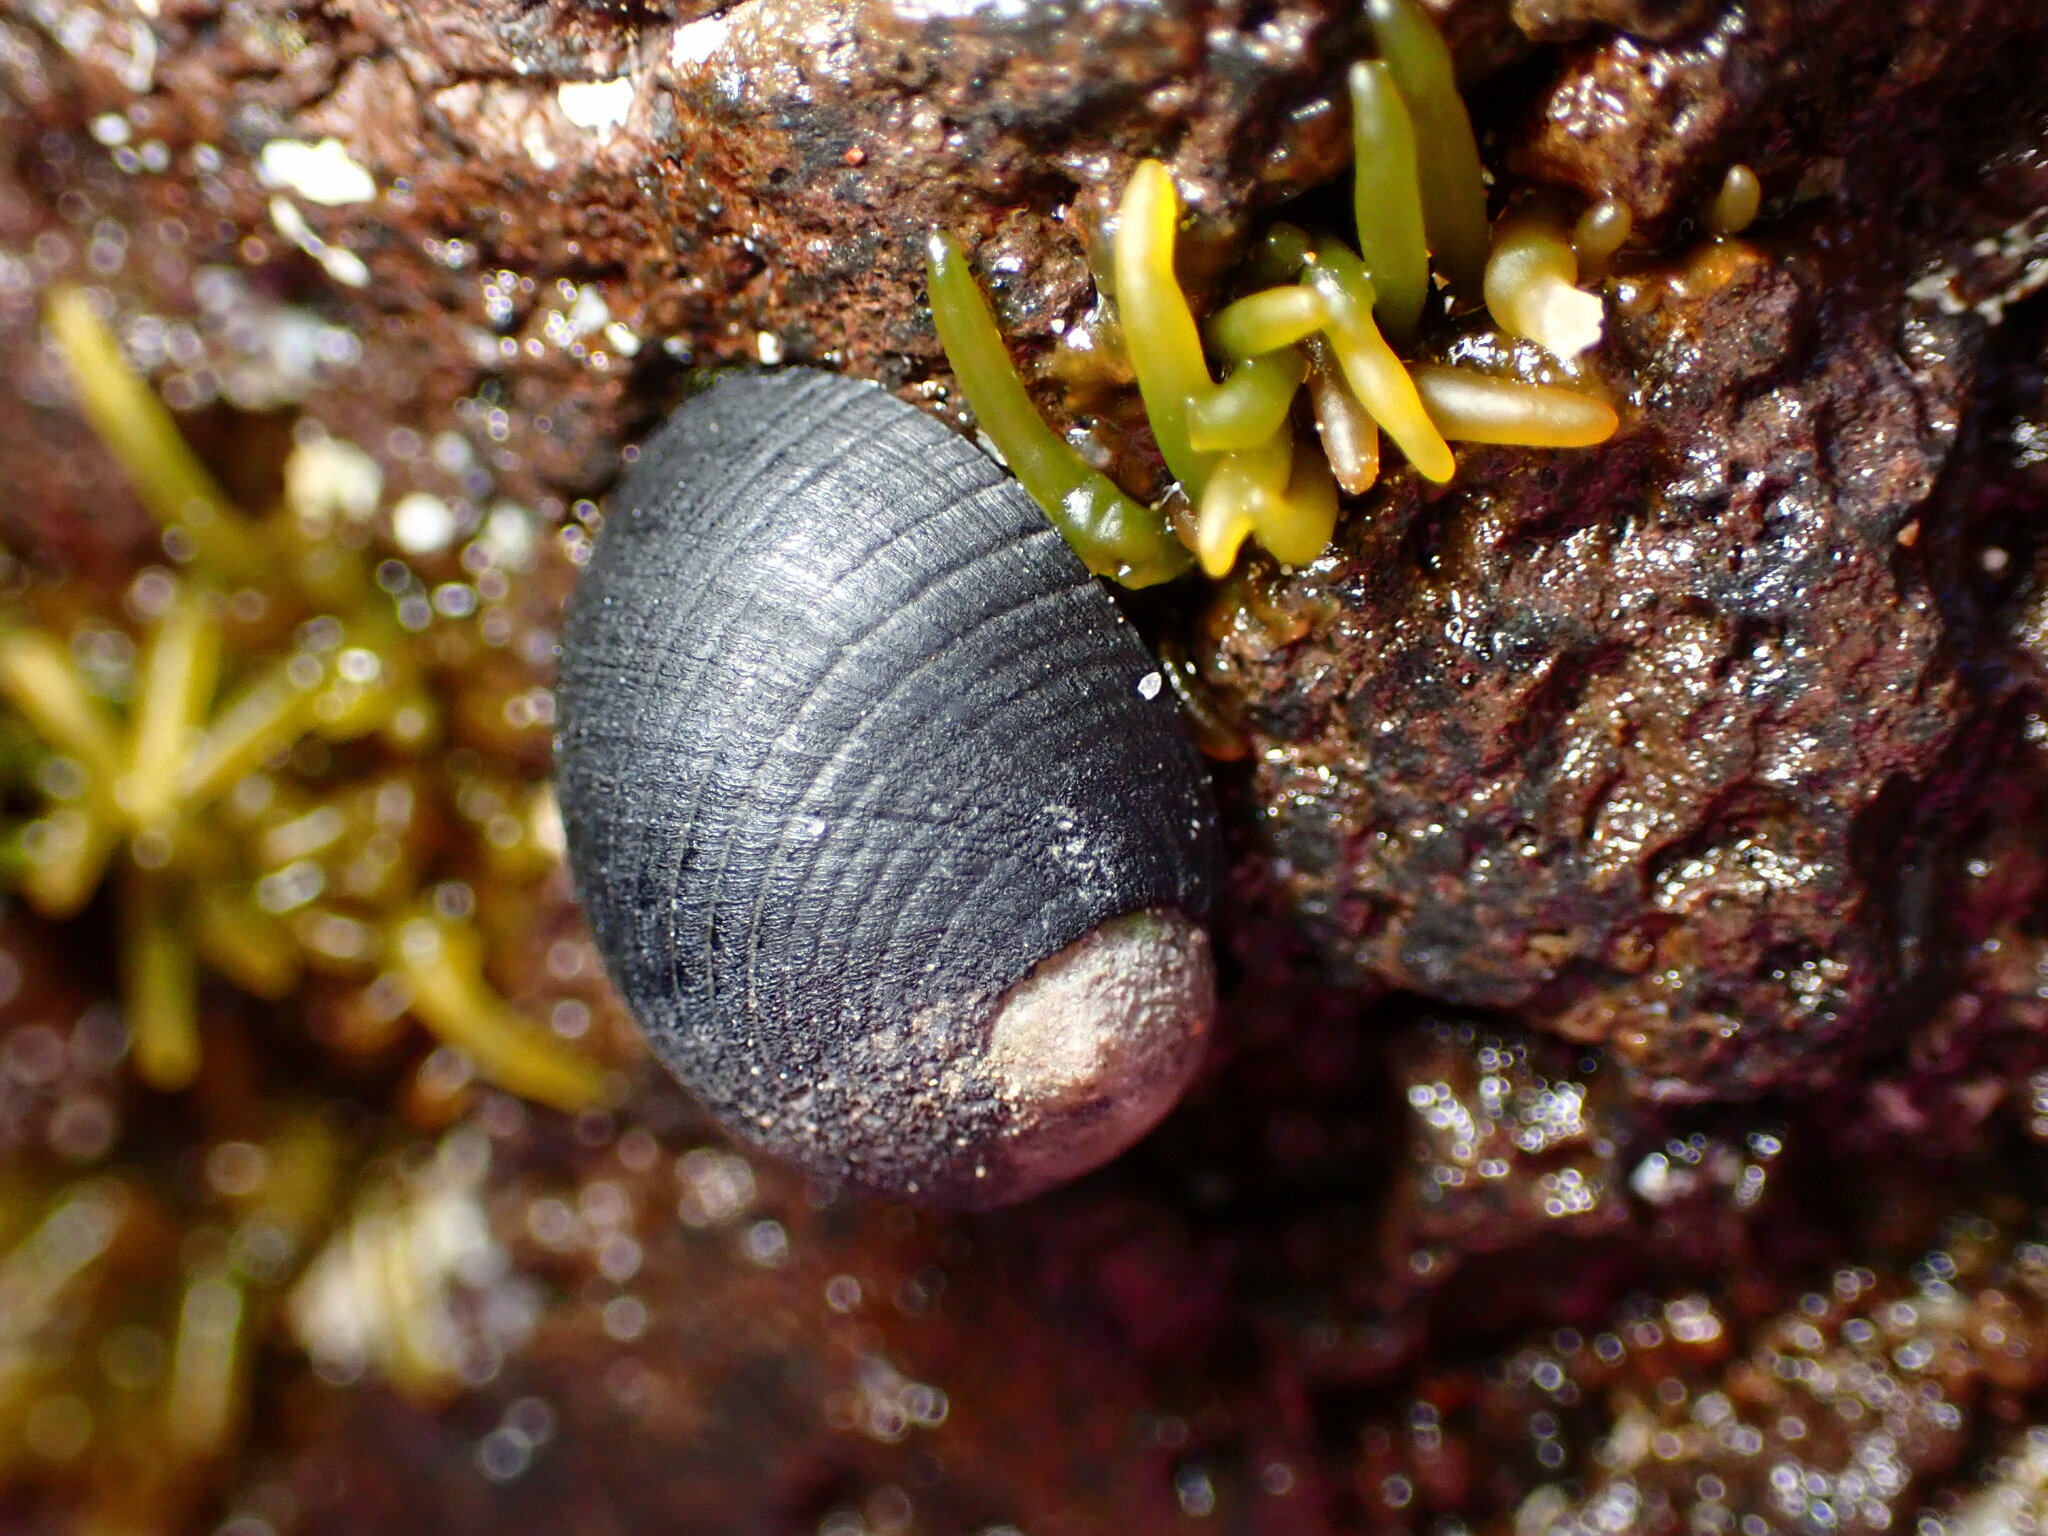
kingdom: Animalia
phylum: Mollusca
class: Gastropoda
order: Cycloneritida
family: Neritidae
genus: Nerita
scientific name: Nerita picea
